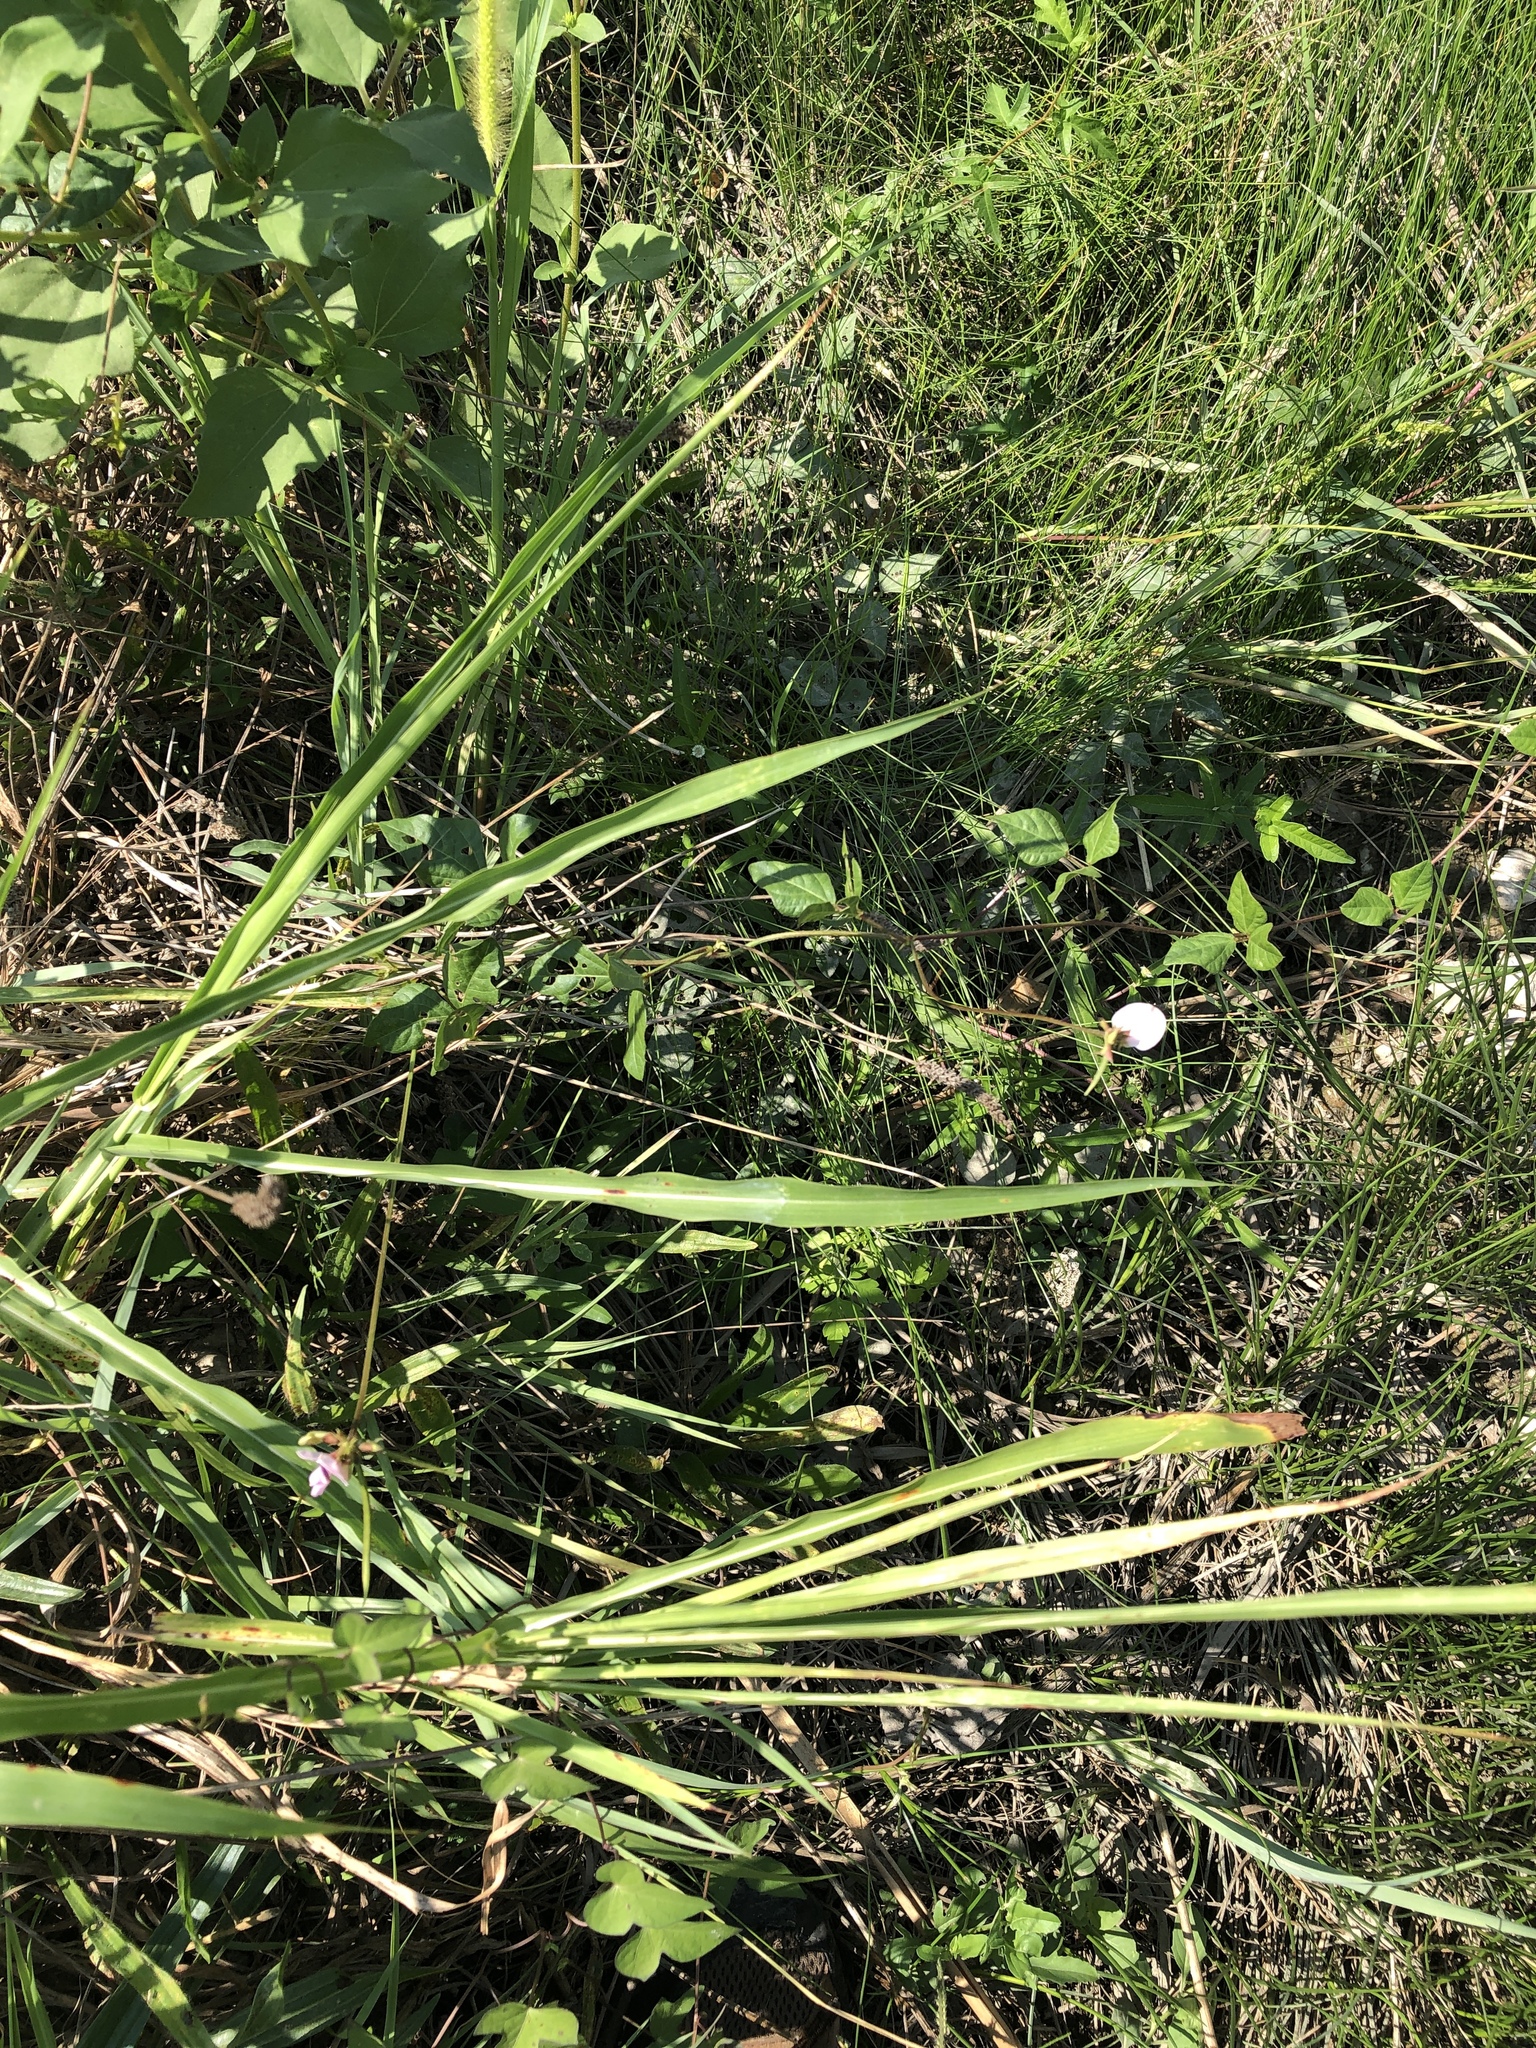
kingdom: Plantae
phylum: Tracheophyta
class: Magnoliopsida
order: Fabales
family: Fabaceae
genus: Strophostyles
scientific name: Strophostyles helvola
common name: Trailing wild bean
